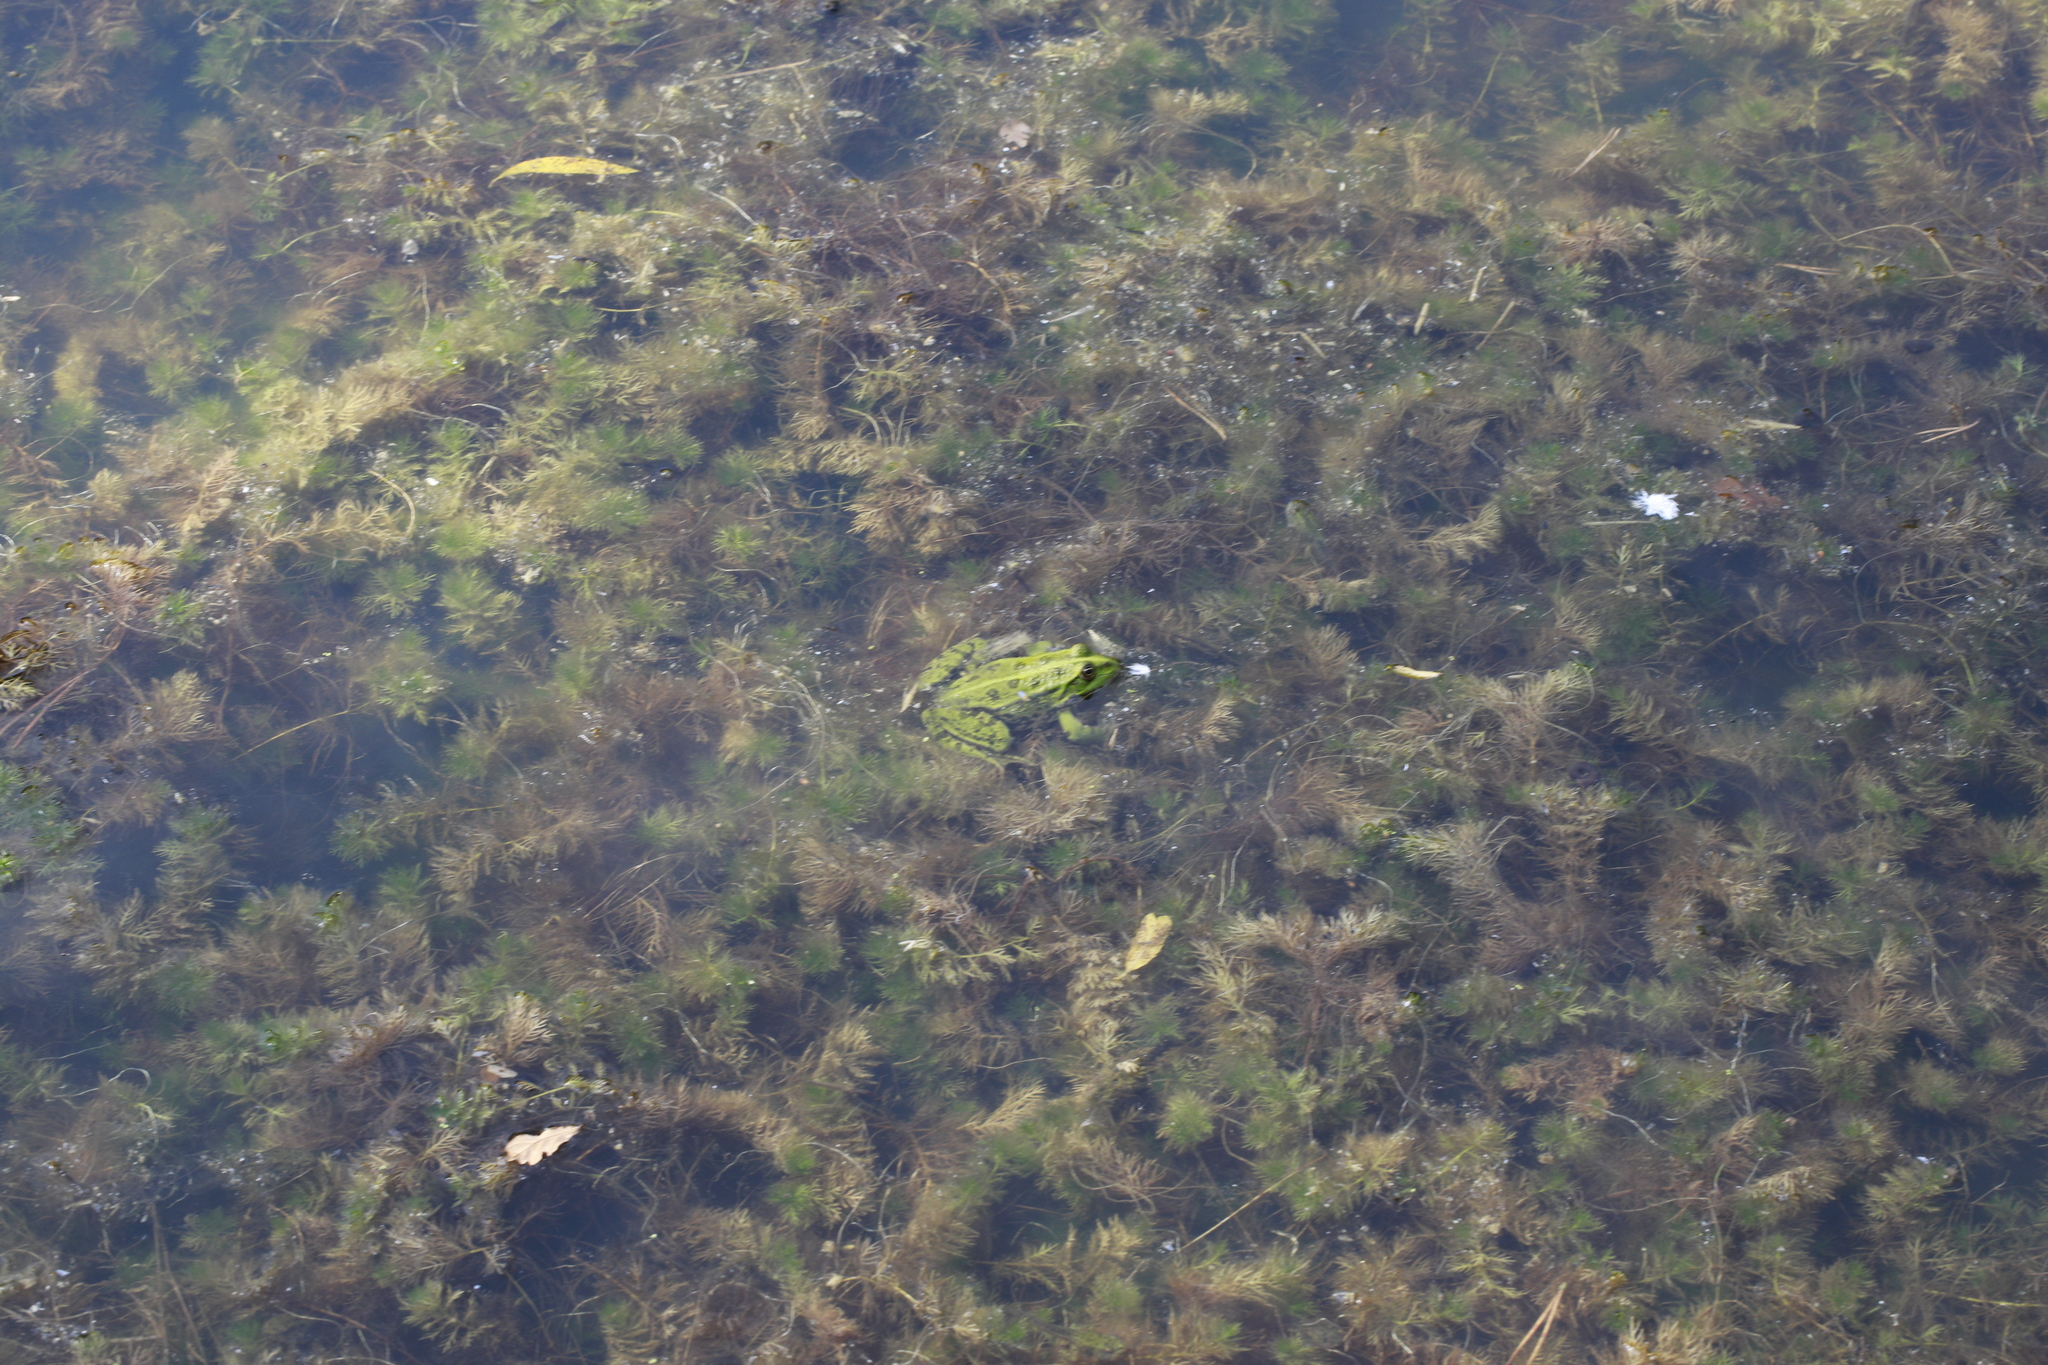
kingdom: Animalia
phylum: Chordata
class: Amphibia
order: Anura
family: Ranidae
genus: Pelophylax
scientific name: Pelophylax
